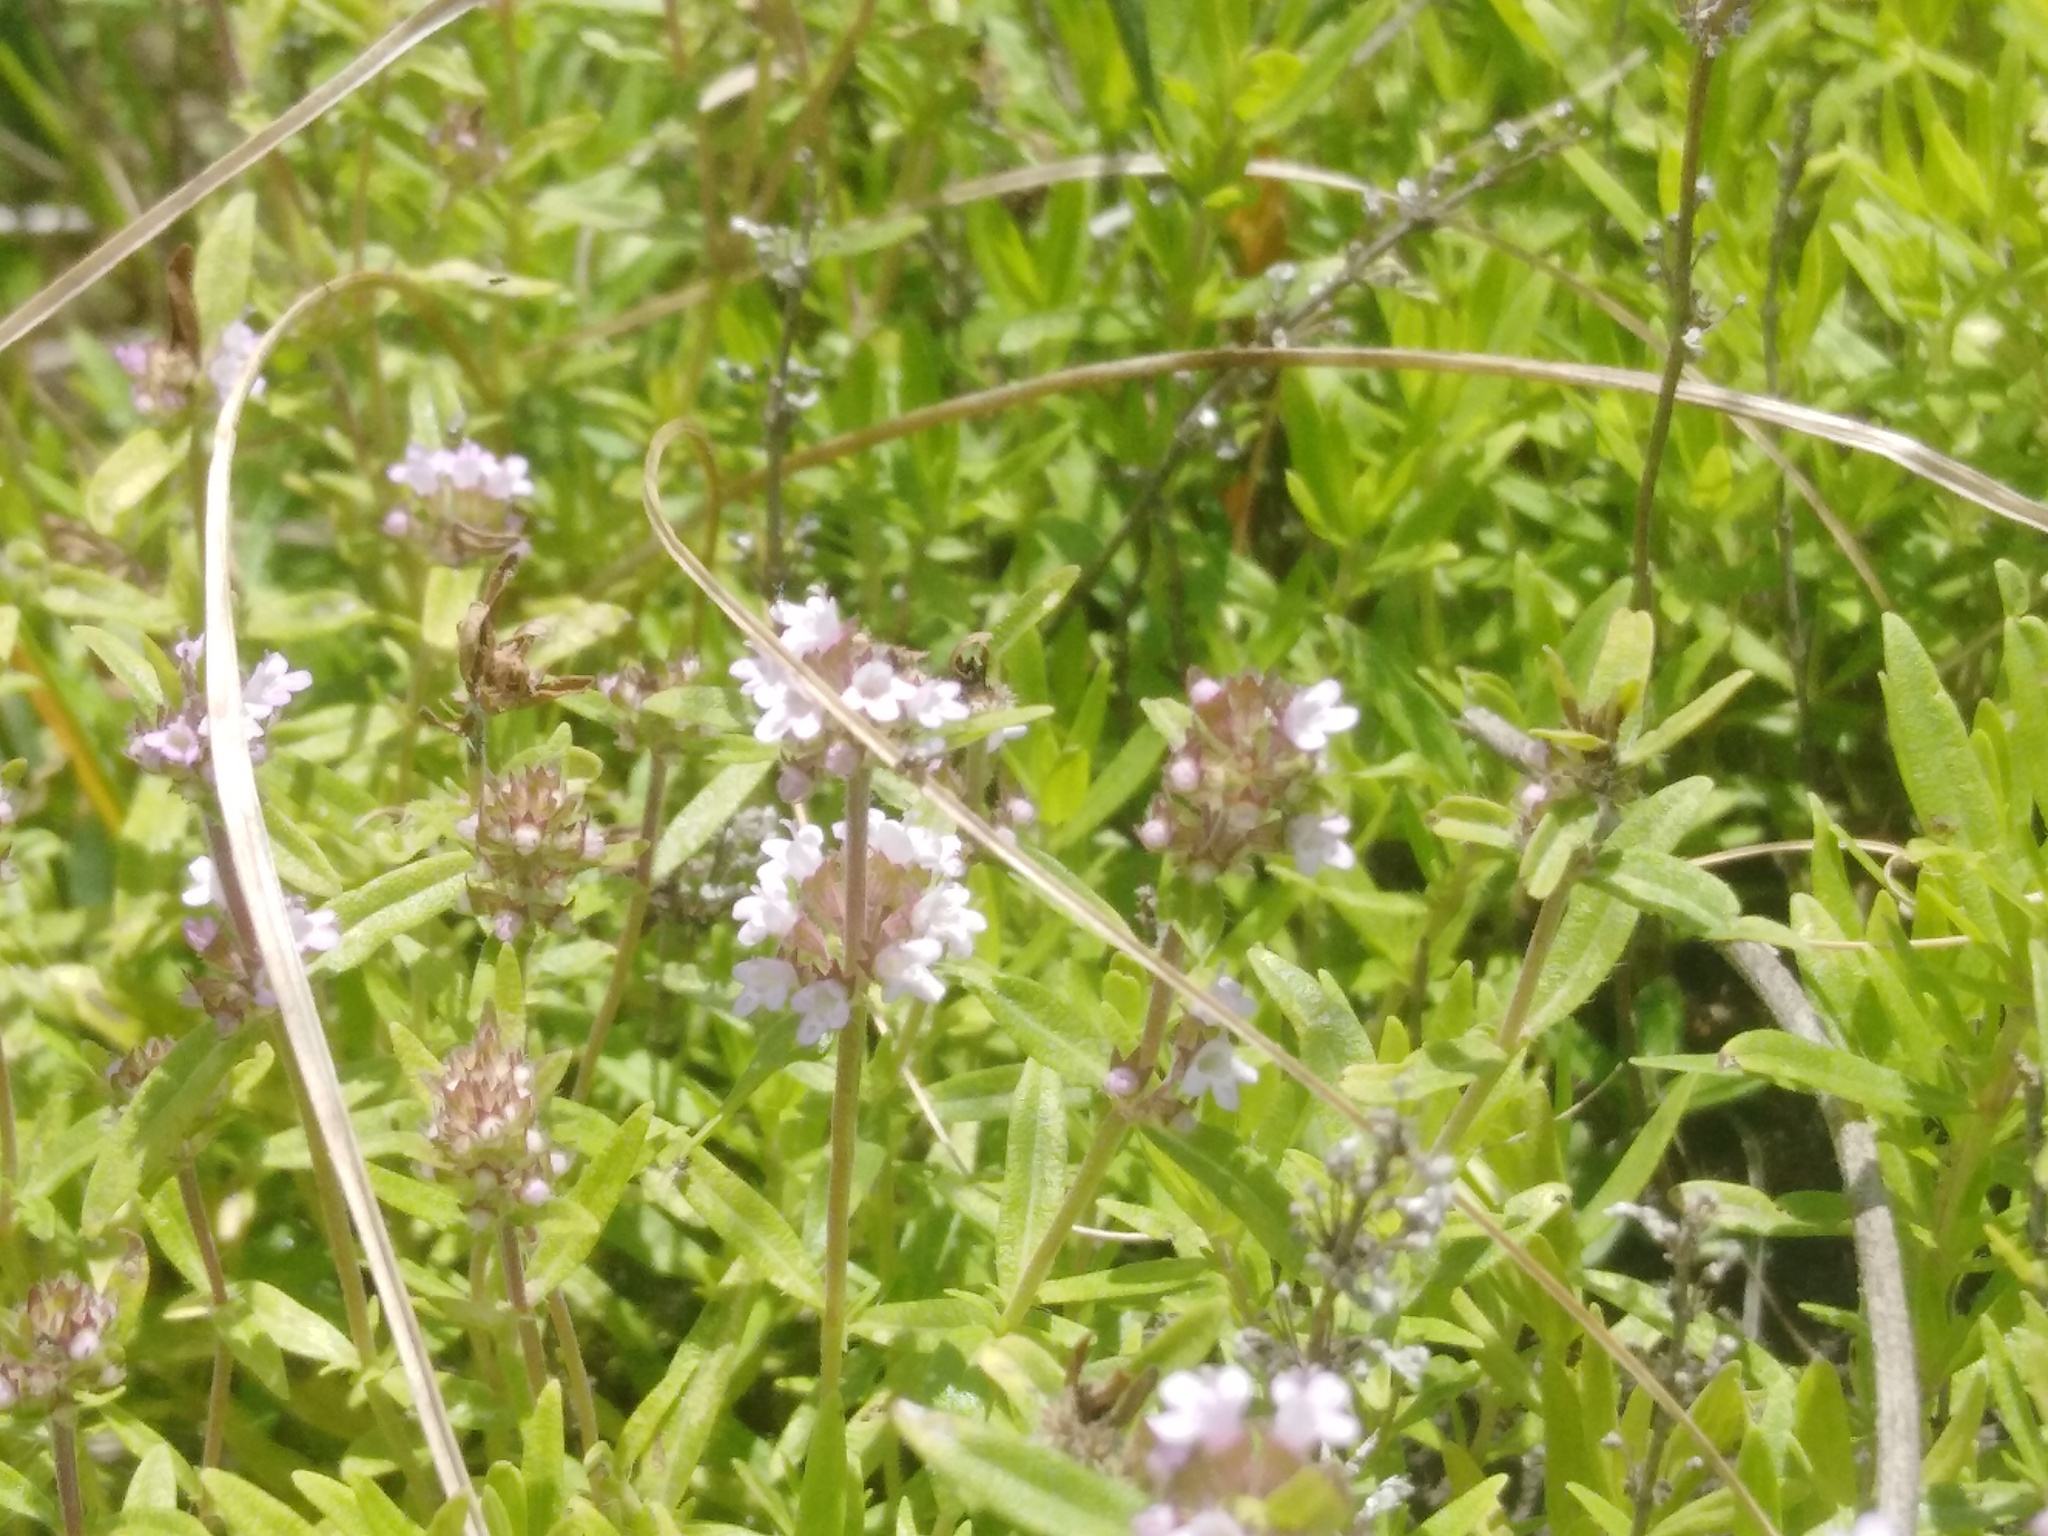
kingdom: Plantae
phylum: Tracheophyta
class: Magnoliopsida
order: Lamiales
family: Lamiaceae
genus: Thymus
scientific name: Thymus pannonicus
